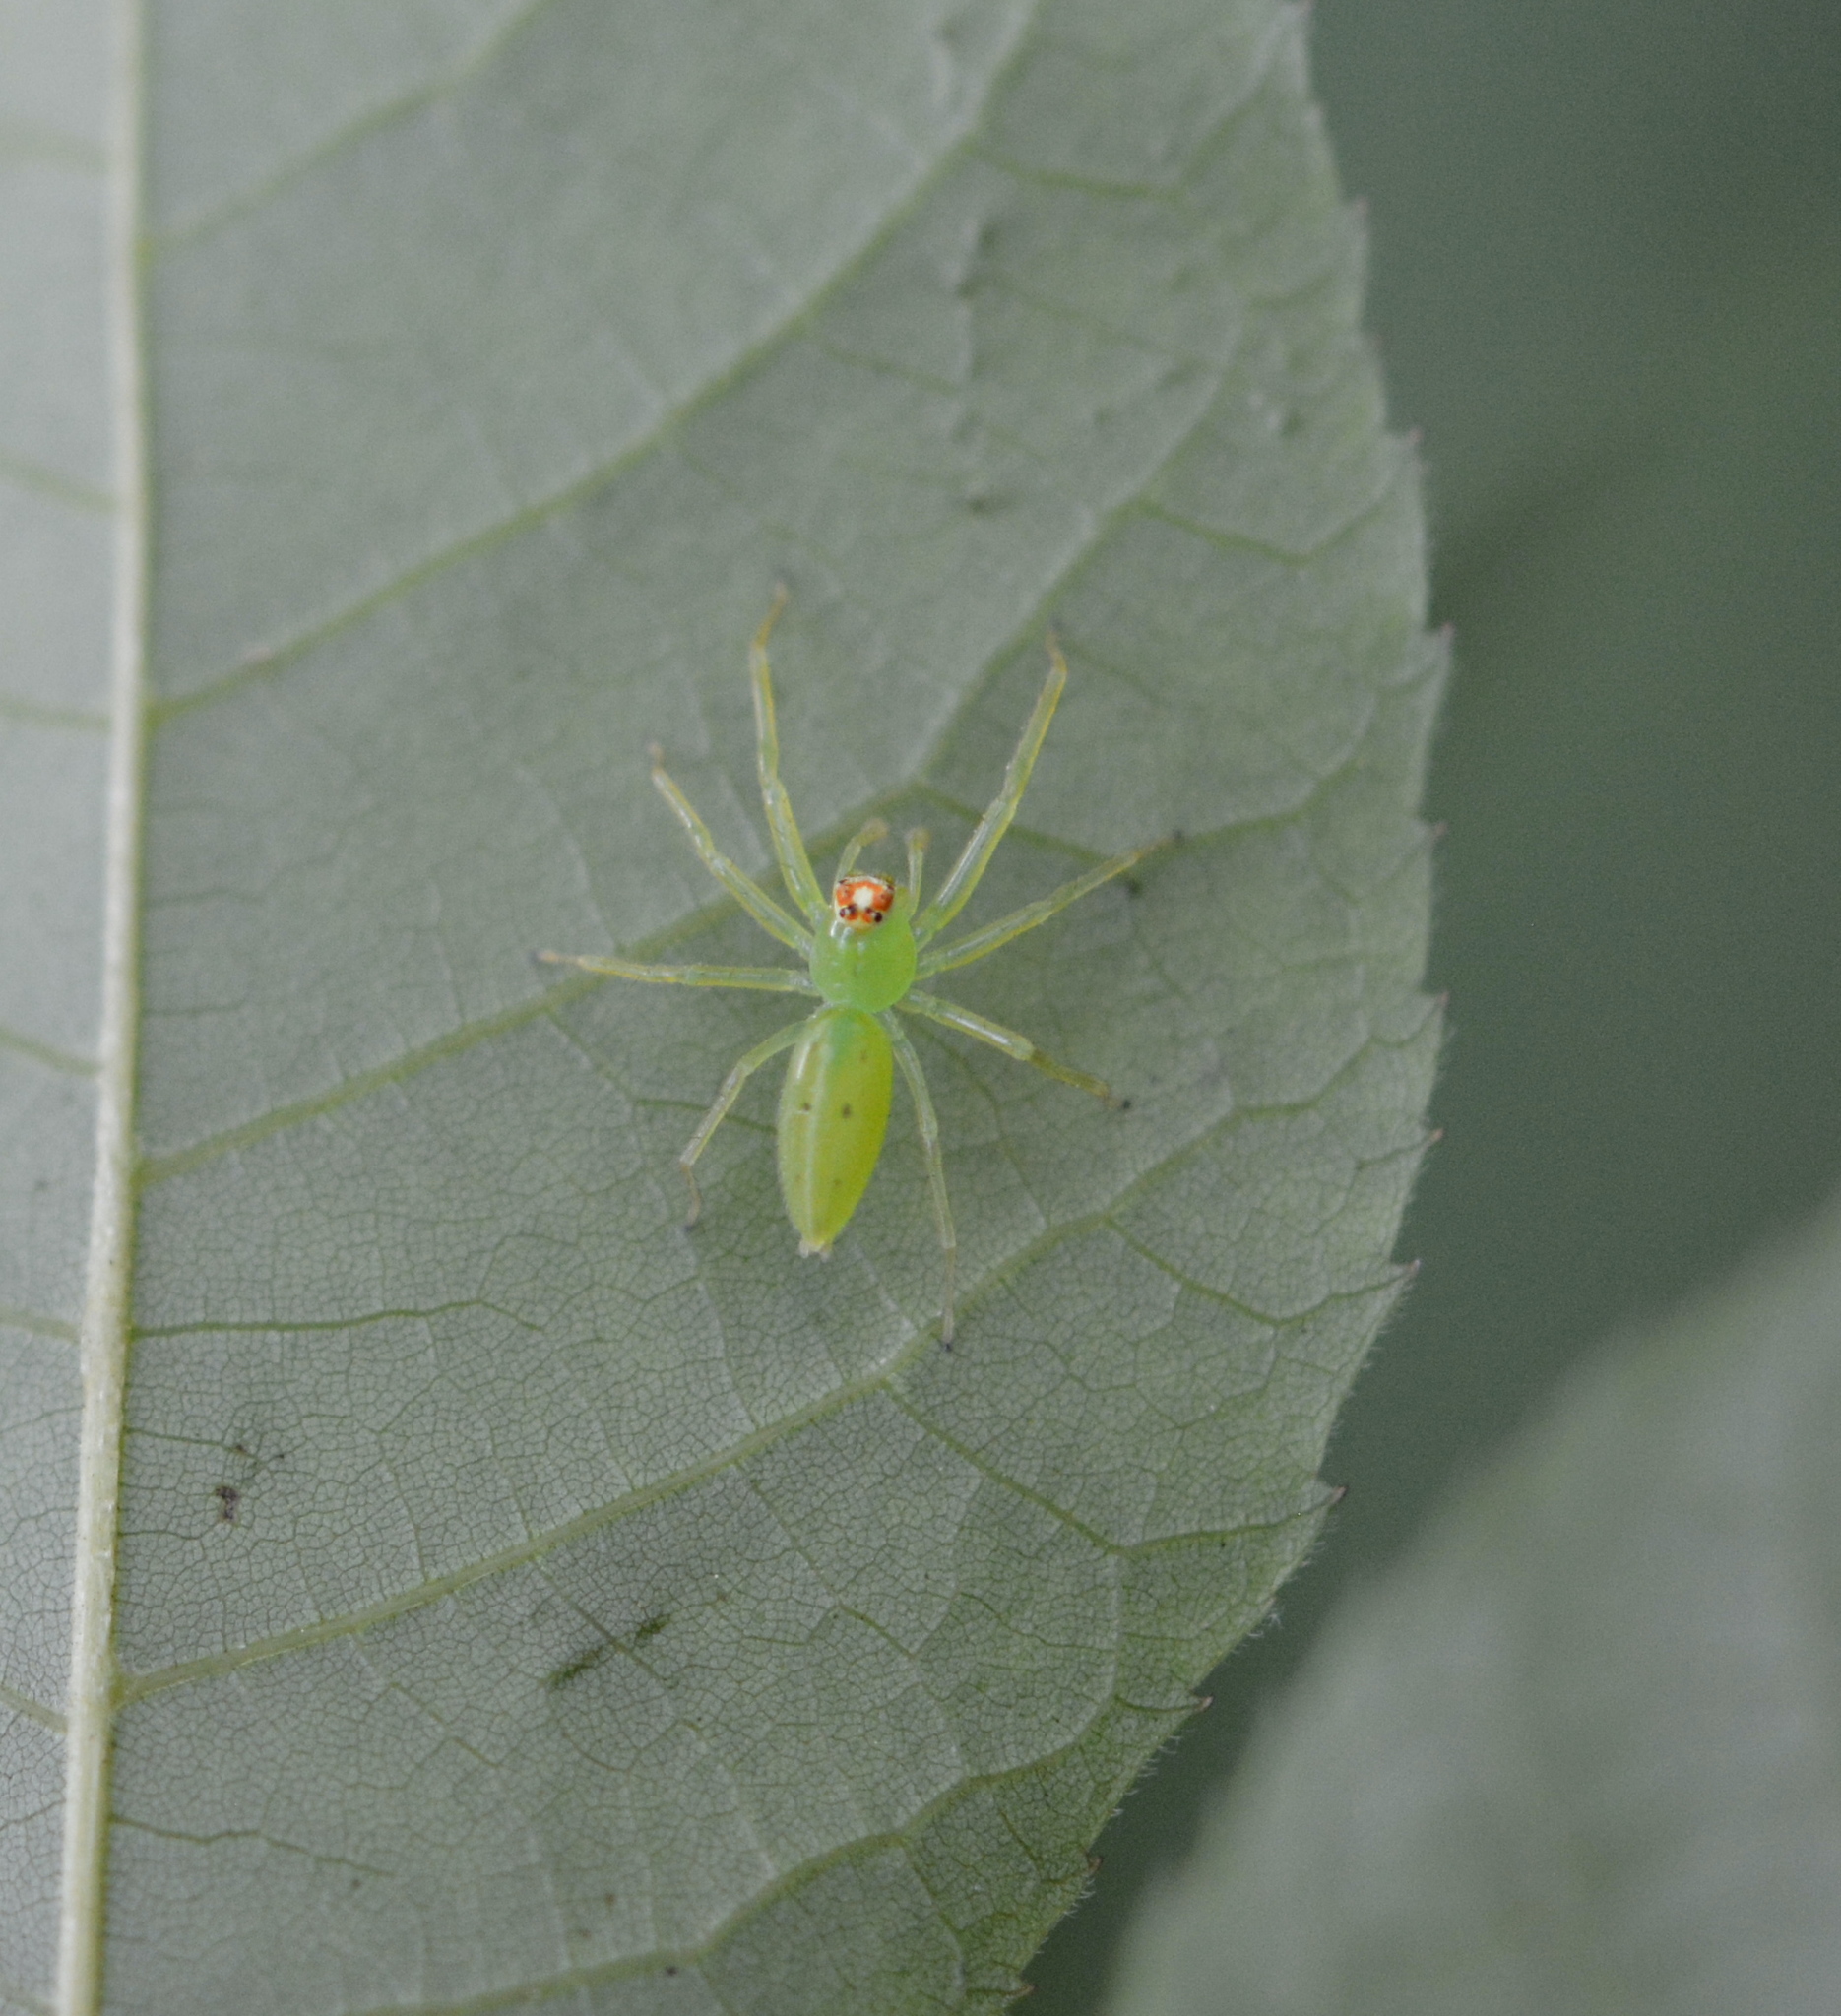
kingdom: Animalia
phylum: Arthropoda
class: Arachnida
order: Araneae
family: Salticidae
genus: Lyssomanes
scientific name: Lyssomanes viridis
